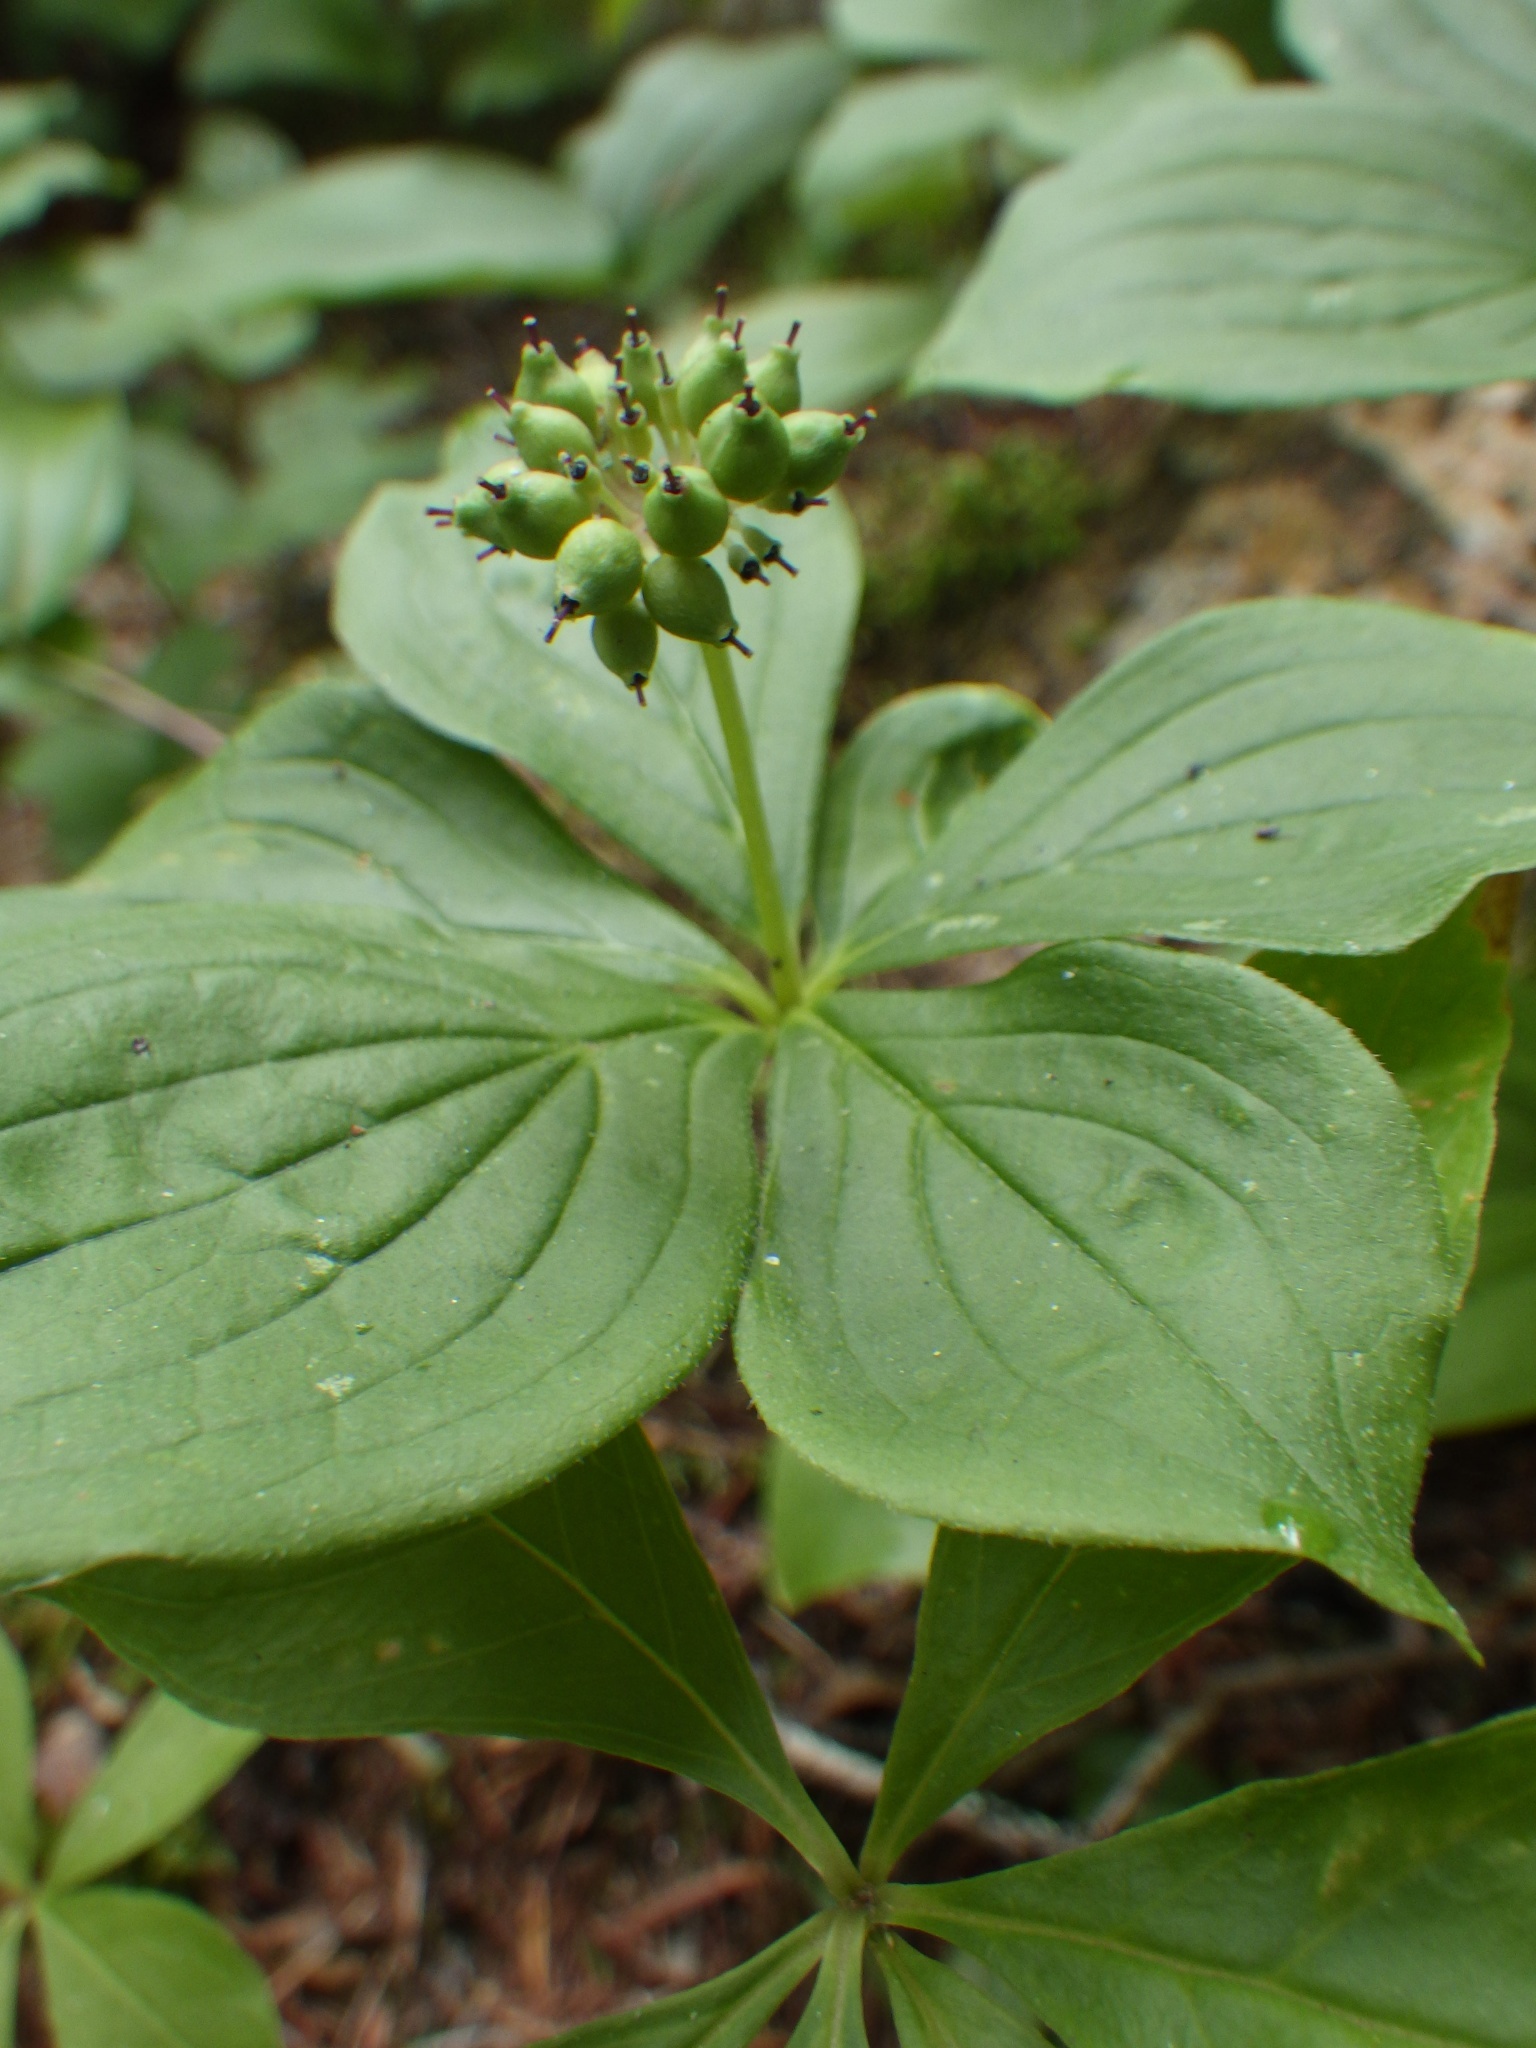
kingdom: Plantae
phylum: Tracheophyta
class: Magnoliopsida
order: Cornales
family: Cornaceae
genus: Cornus
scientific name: Cornus canadensis
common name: Creeping dogwood
